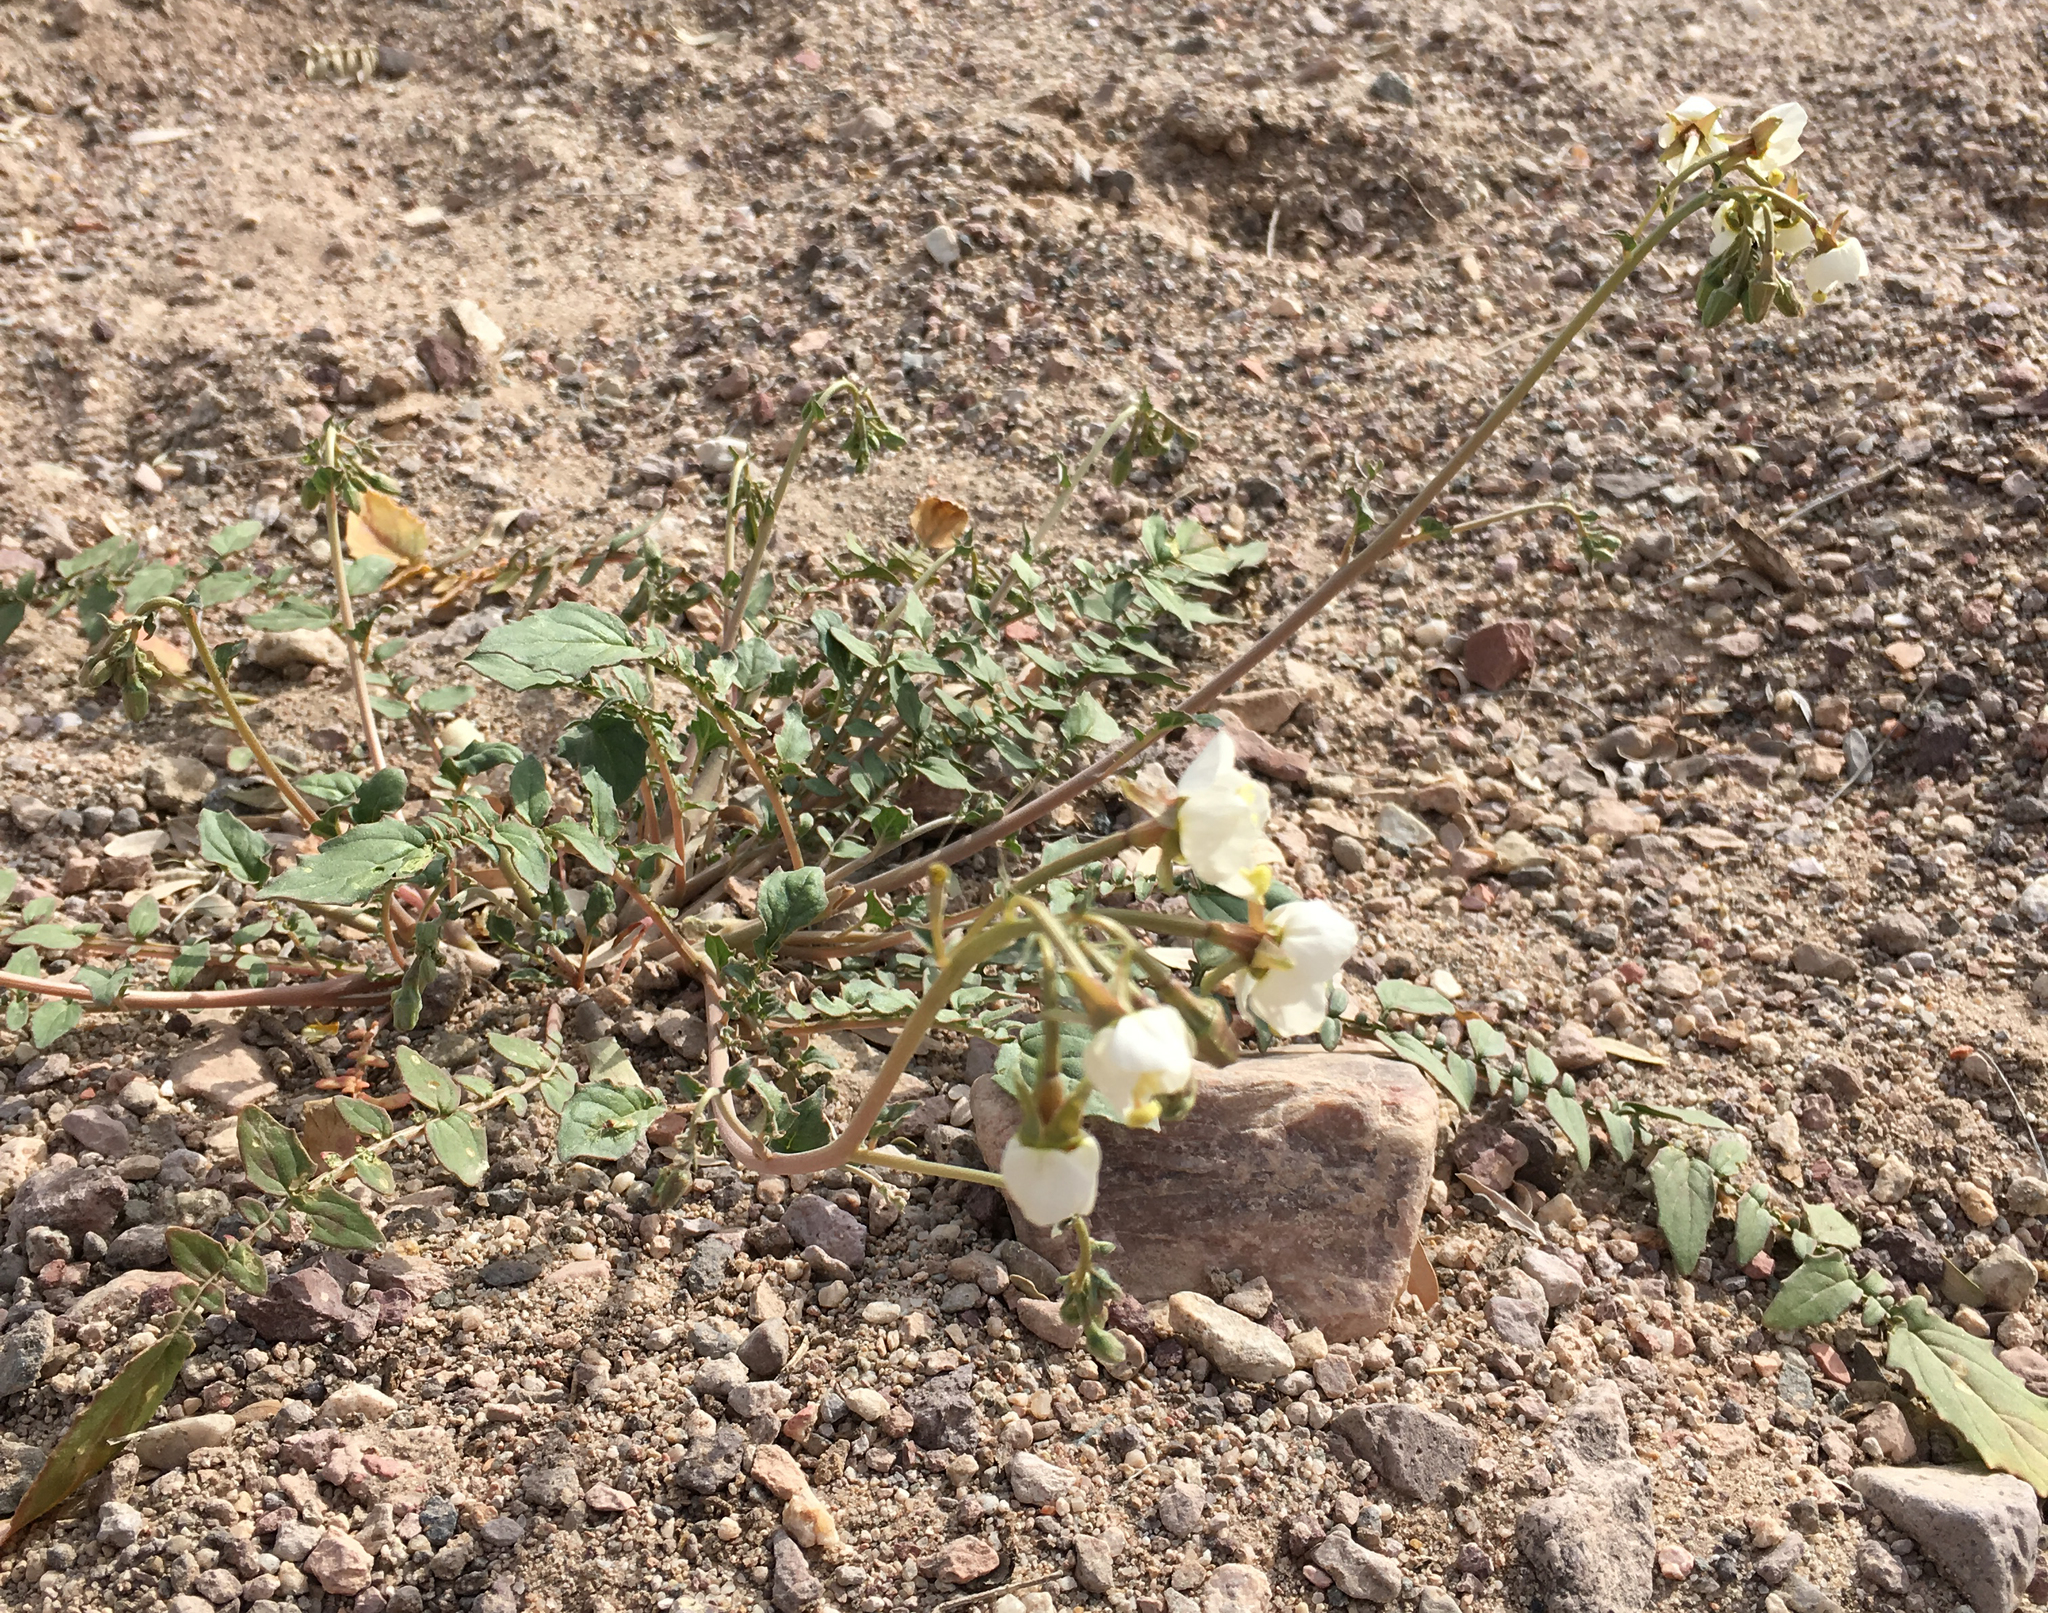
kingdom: Plantae
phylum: Tracheophyta
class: Magnoliopsida
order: Myrtales
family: Onagraceae
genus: Chylismia
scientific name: Chylismia claviformis
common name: Browneyes
